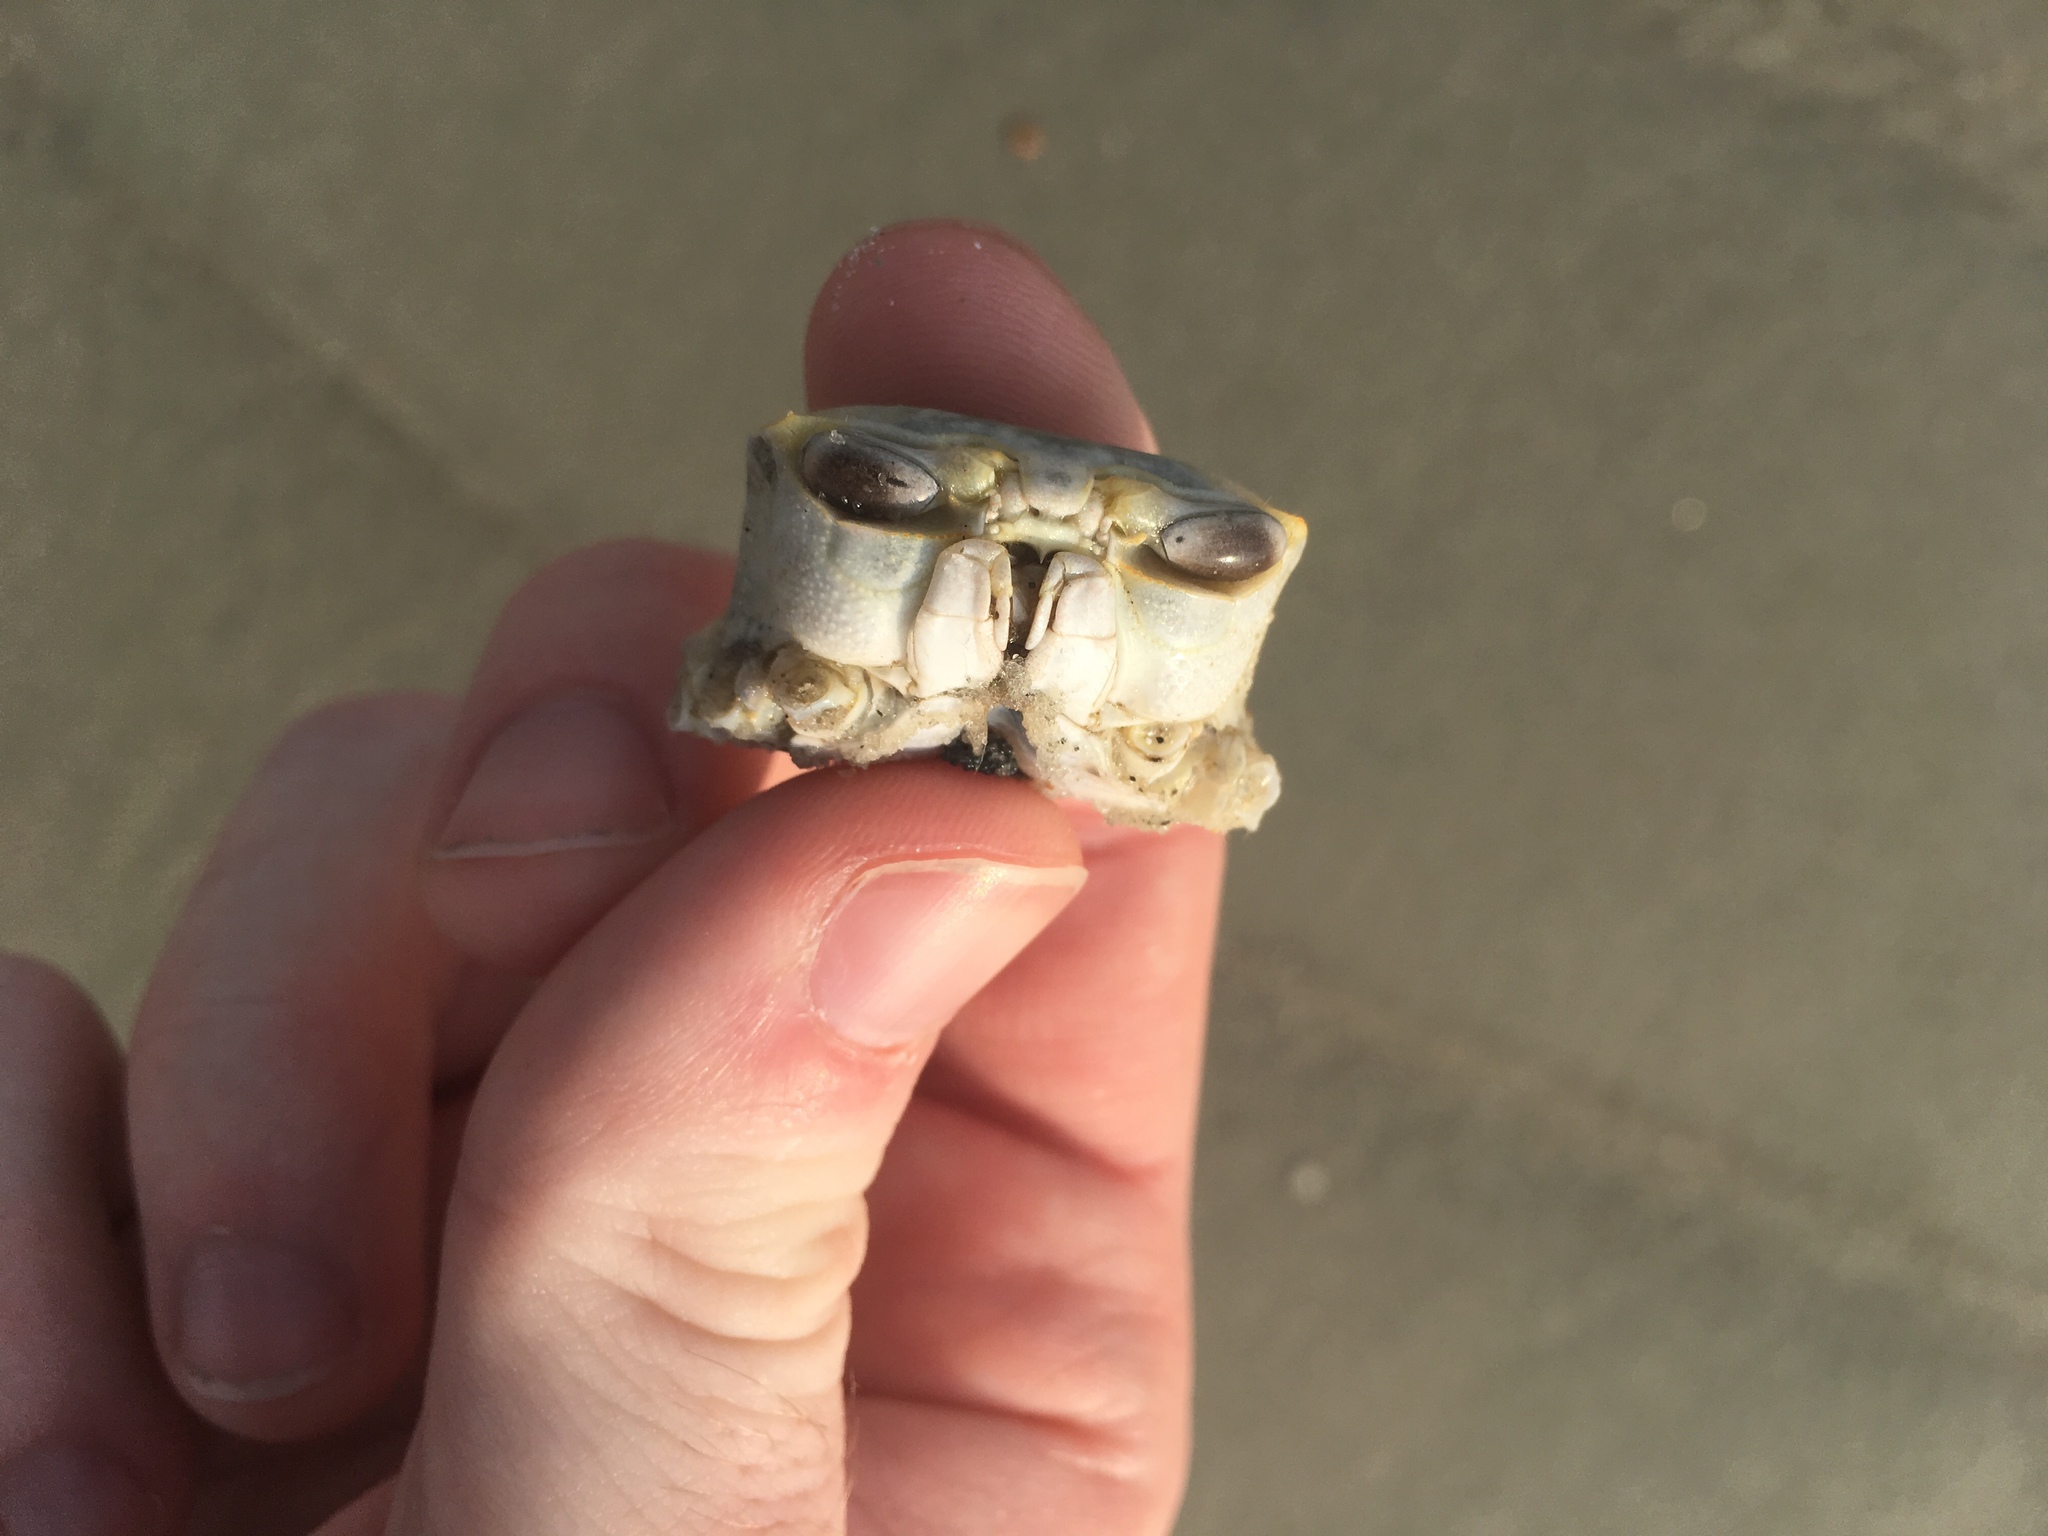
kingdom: Animalia
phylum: Arthropoda
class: Malacostraca
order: Decapoda
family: Ocypodidae
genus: Ocypode
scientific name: Ocypode quadrata
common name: Ghost crab
